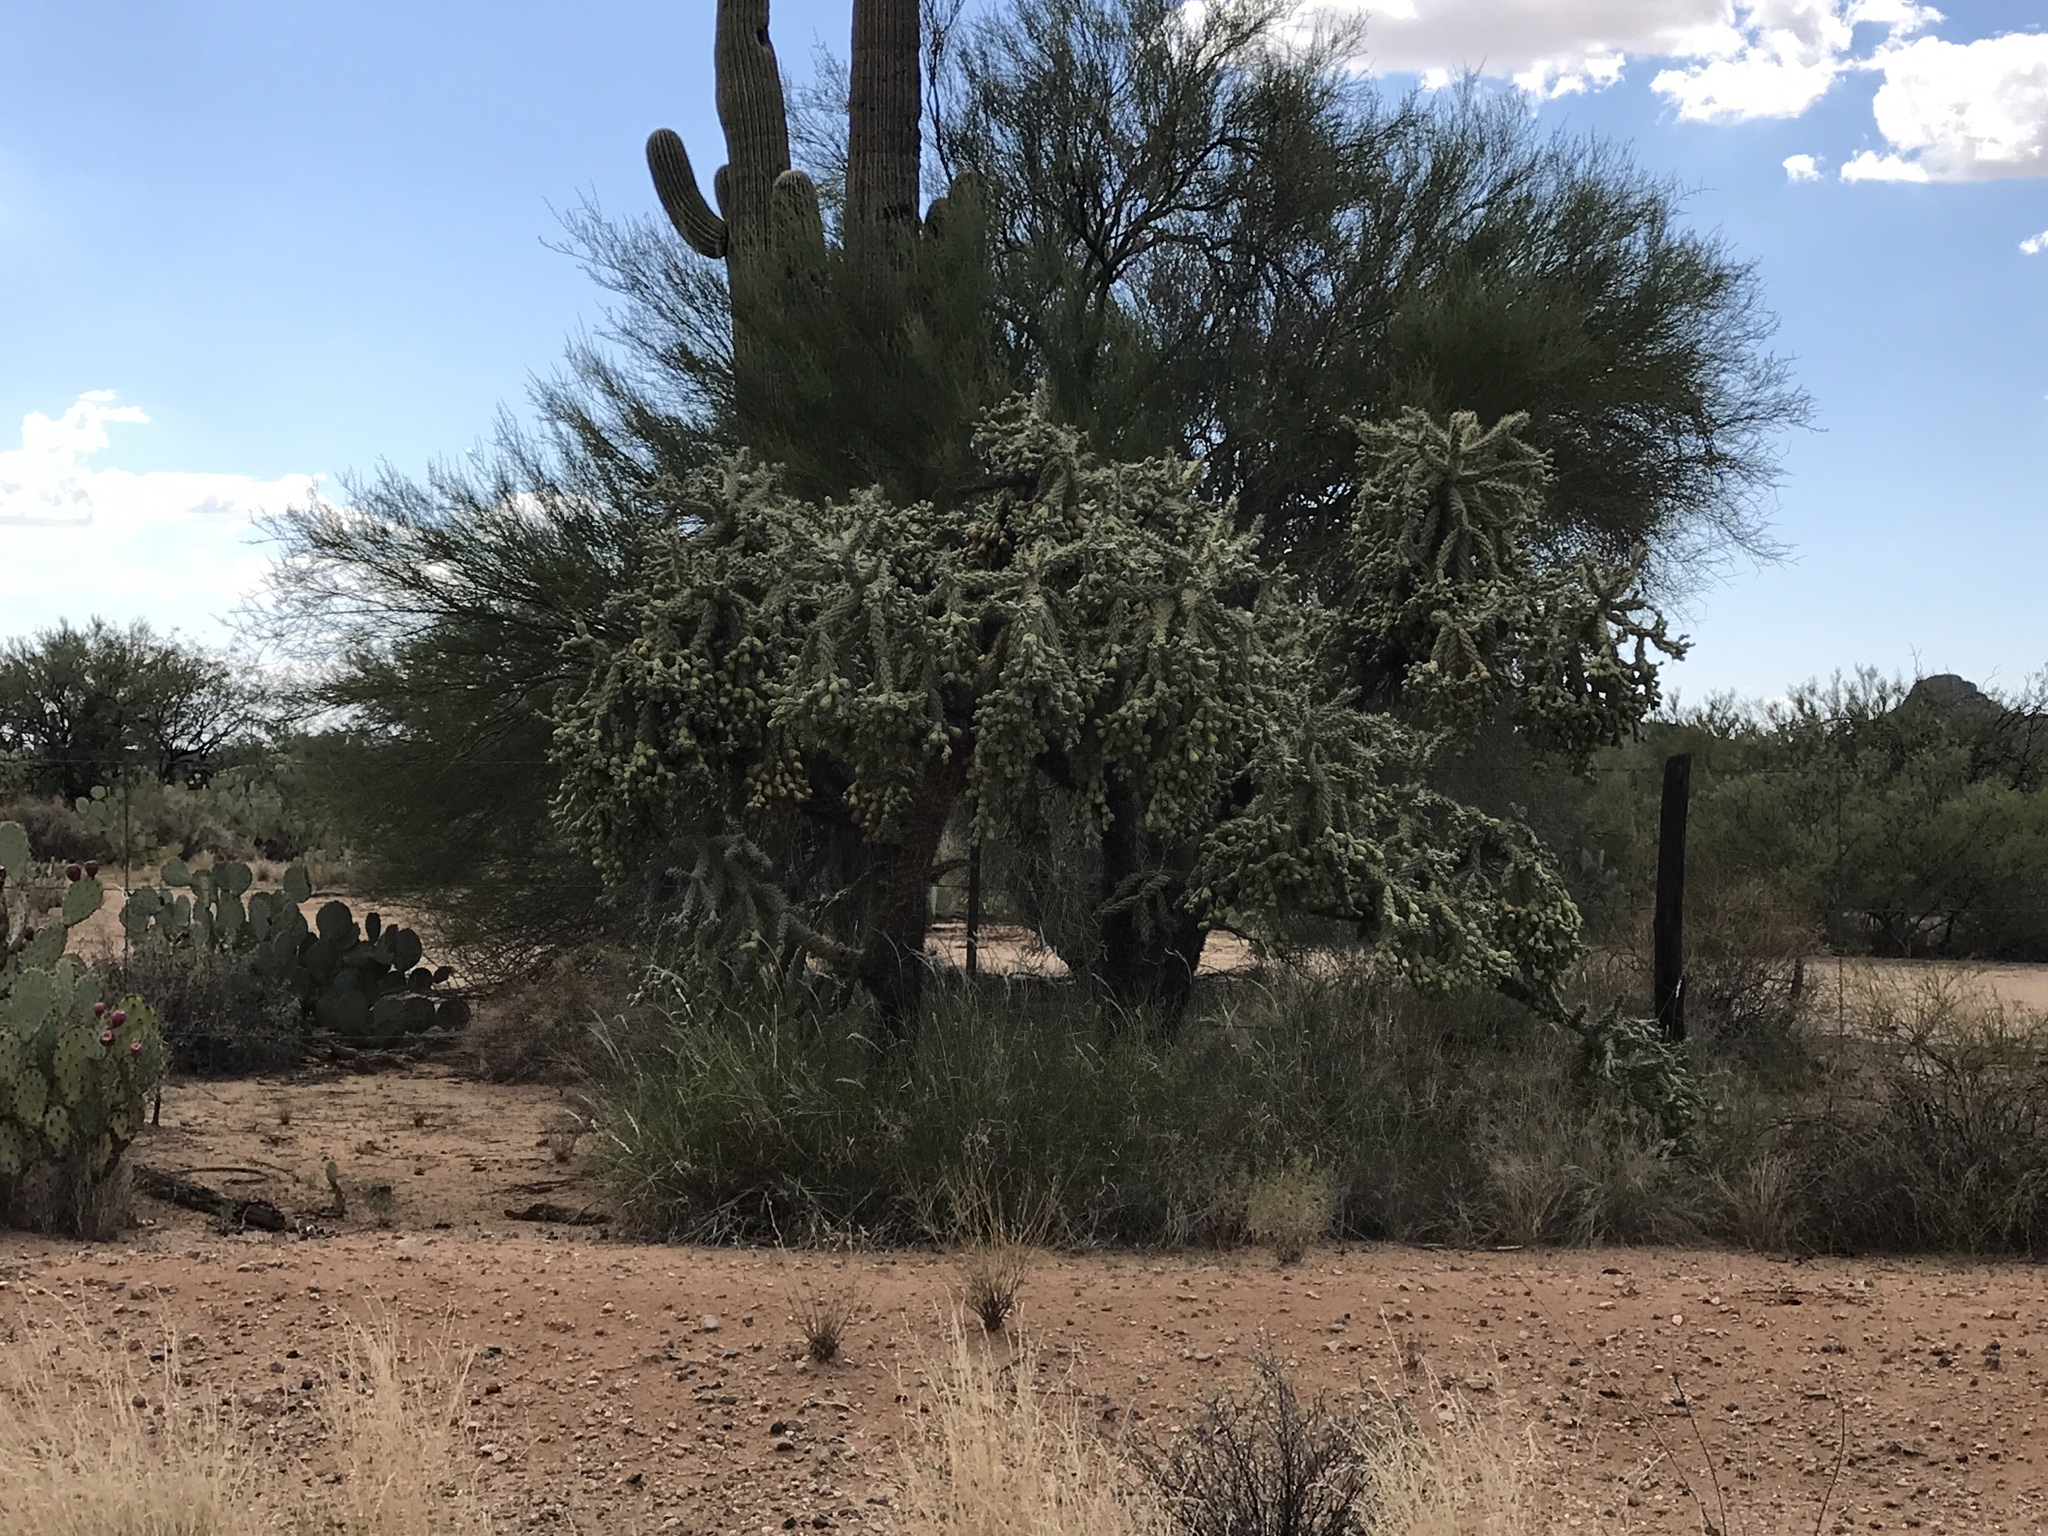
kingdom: Plantae
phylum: Tracheophyta
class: Magnoliopsida
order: Caryophyllales
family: Cactaceae
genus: Cylindropuntia
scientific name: Cylindropuntia fulgida
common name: Jumping cholla
